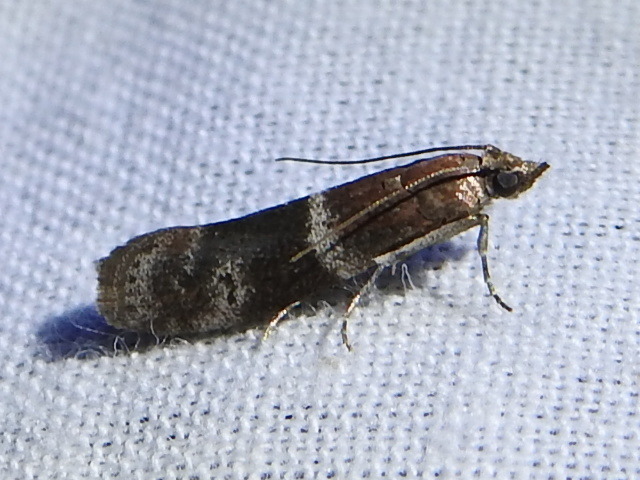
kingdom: Animalia
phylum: Arthropoda
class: Insecta
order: Lepidoptera
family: Pyralidae
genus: Moodna
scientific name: Moodna ostrinella
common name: Darker moodna moth
